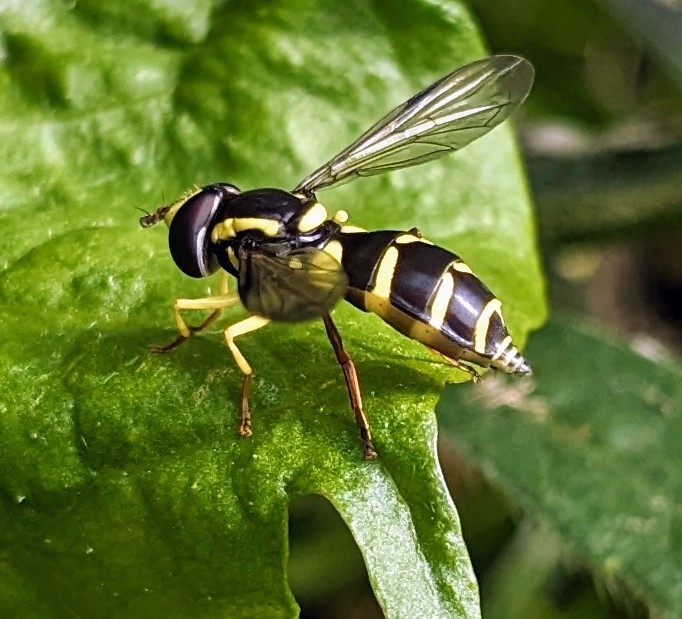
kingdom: Animalia
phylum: Arthropoda
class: Insecta
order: Diptera
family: Syrphidae
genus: Philhelius
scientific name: Philhelius stackelbergi
